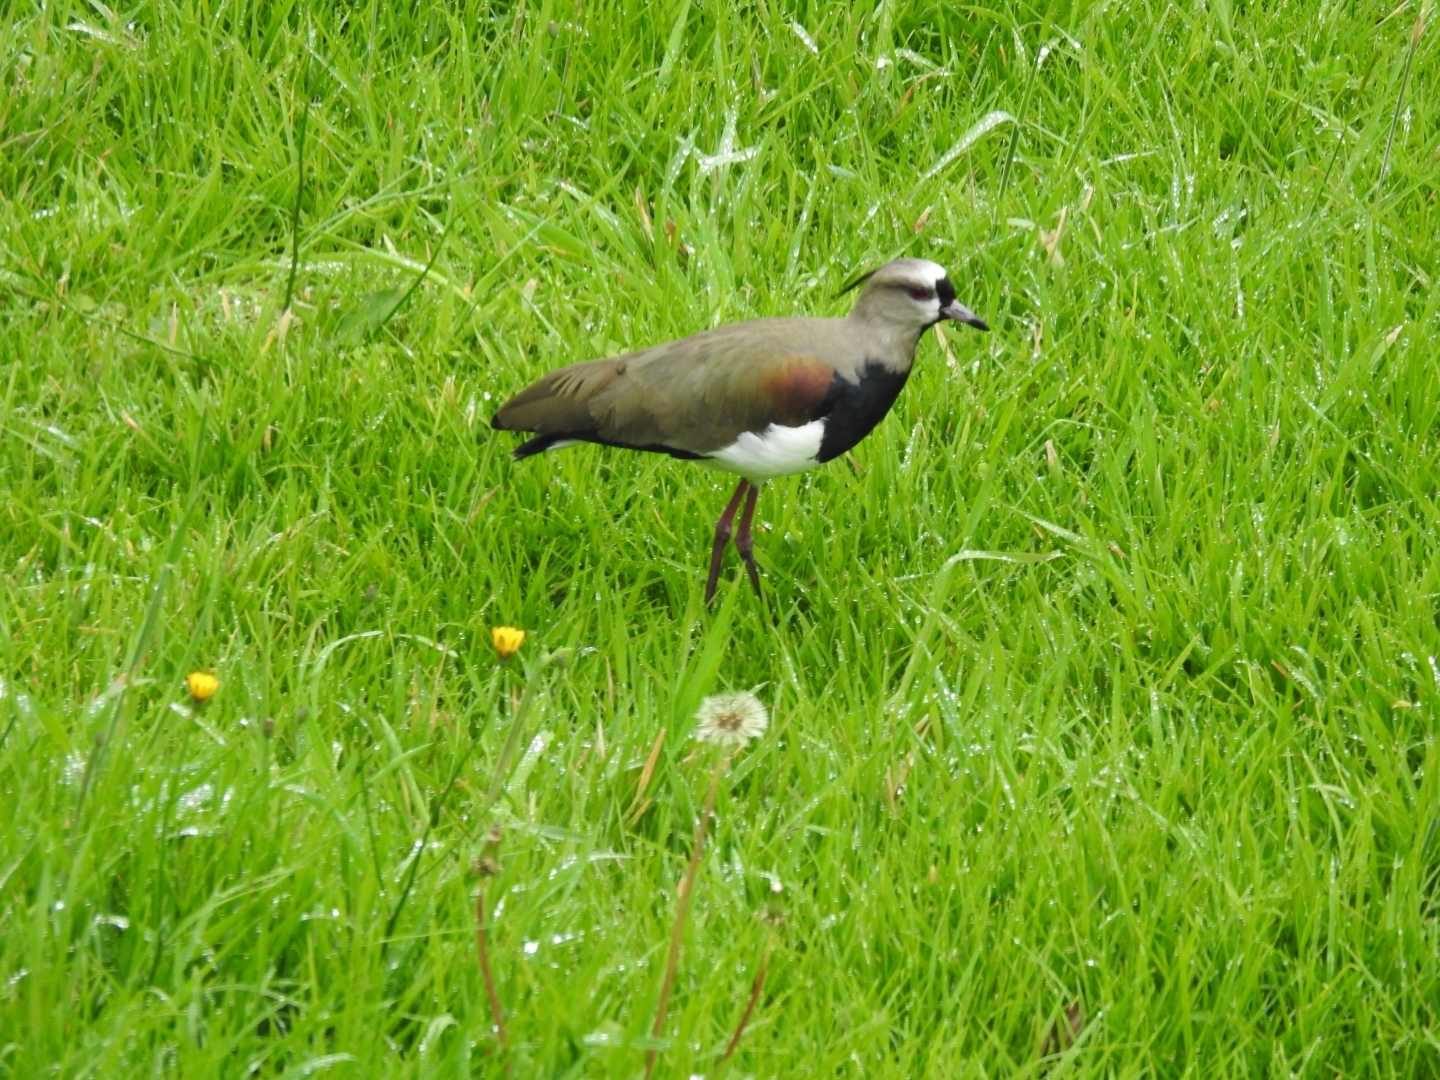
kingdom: Animalia
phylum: Chordata
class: Aves
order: Charadriiformes
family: Charadriidae
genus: Vanellus
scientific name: Vanellus chilensis
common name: Southern lapwing
